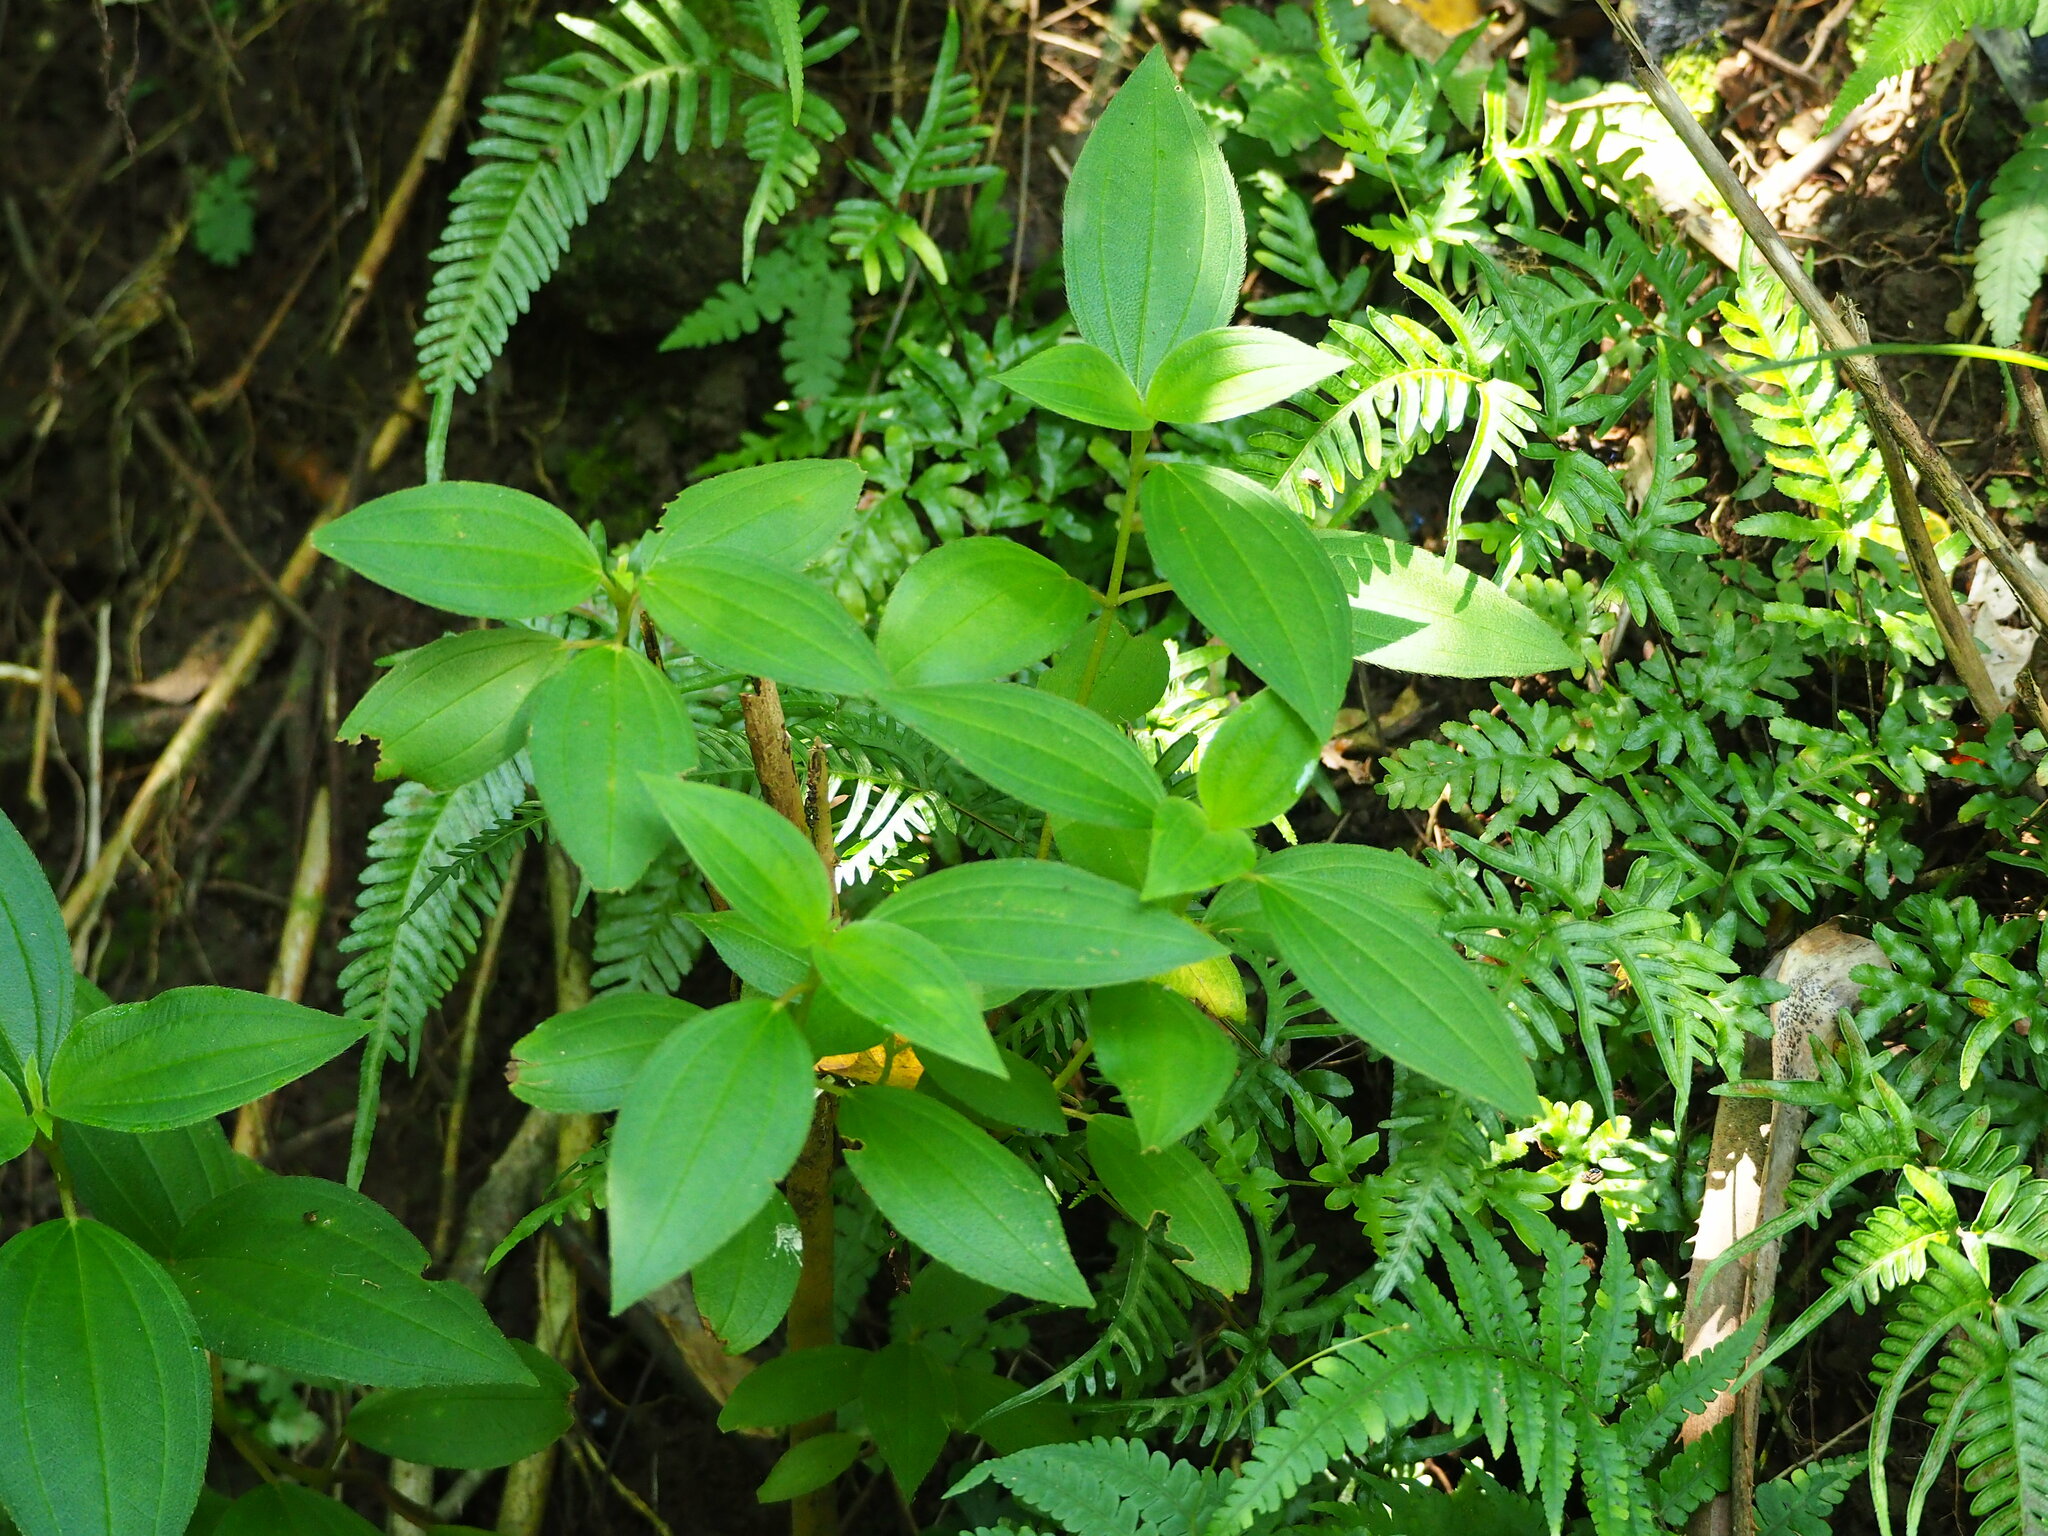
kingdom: Plantae
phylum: Tracheophyta
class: Magnoliopsida
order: Myrtales
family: Melastomataceae
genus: Melastoma
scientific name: Melastoma malabathricum
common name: Indian-rhododendron
